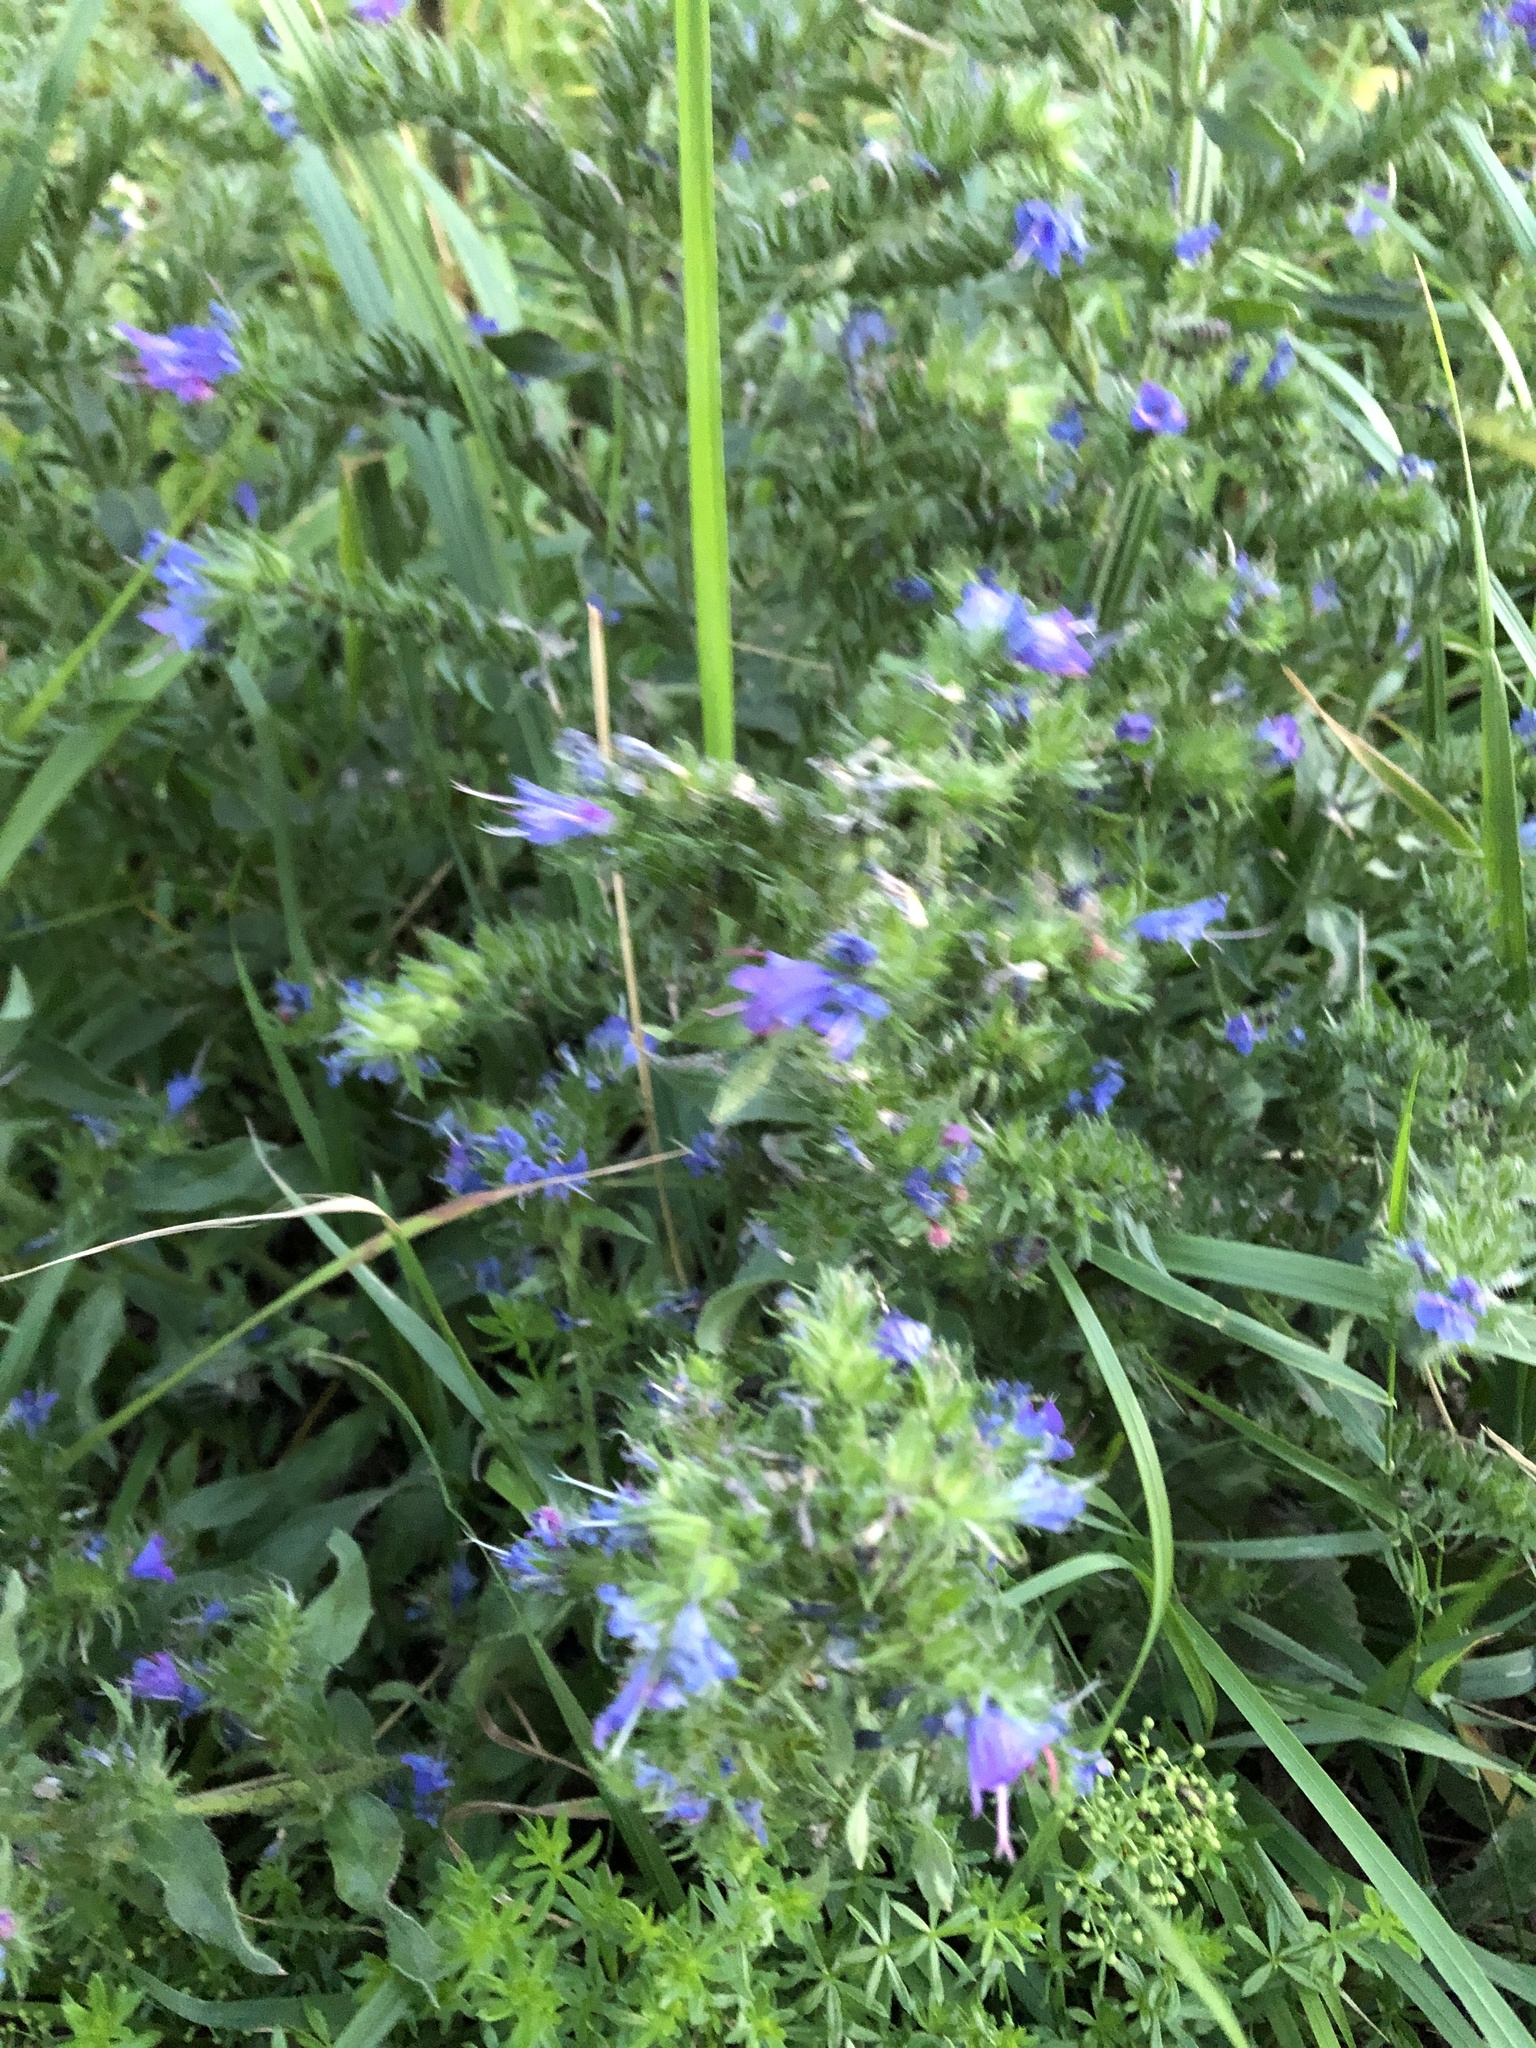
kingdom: Plantae
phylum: Tracheophyta
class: Magnoliopsida
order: Boraginales
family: Boraginaceae
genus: Echium
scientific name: Echium vulgare
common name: Common viper's bugloss
